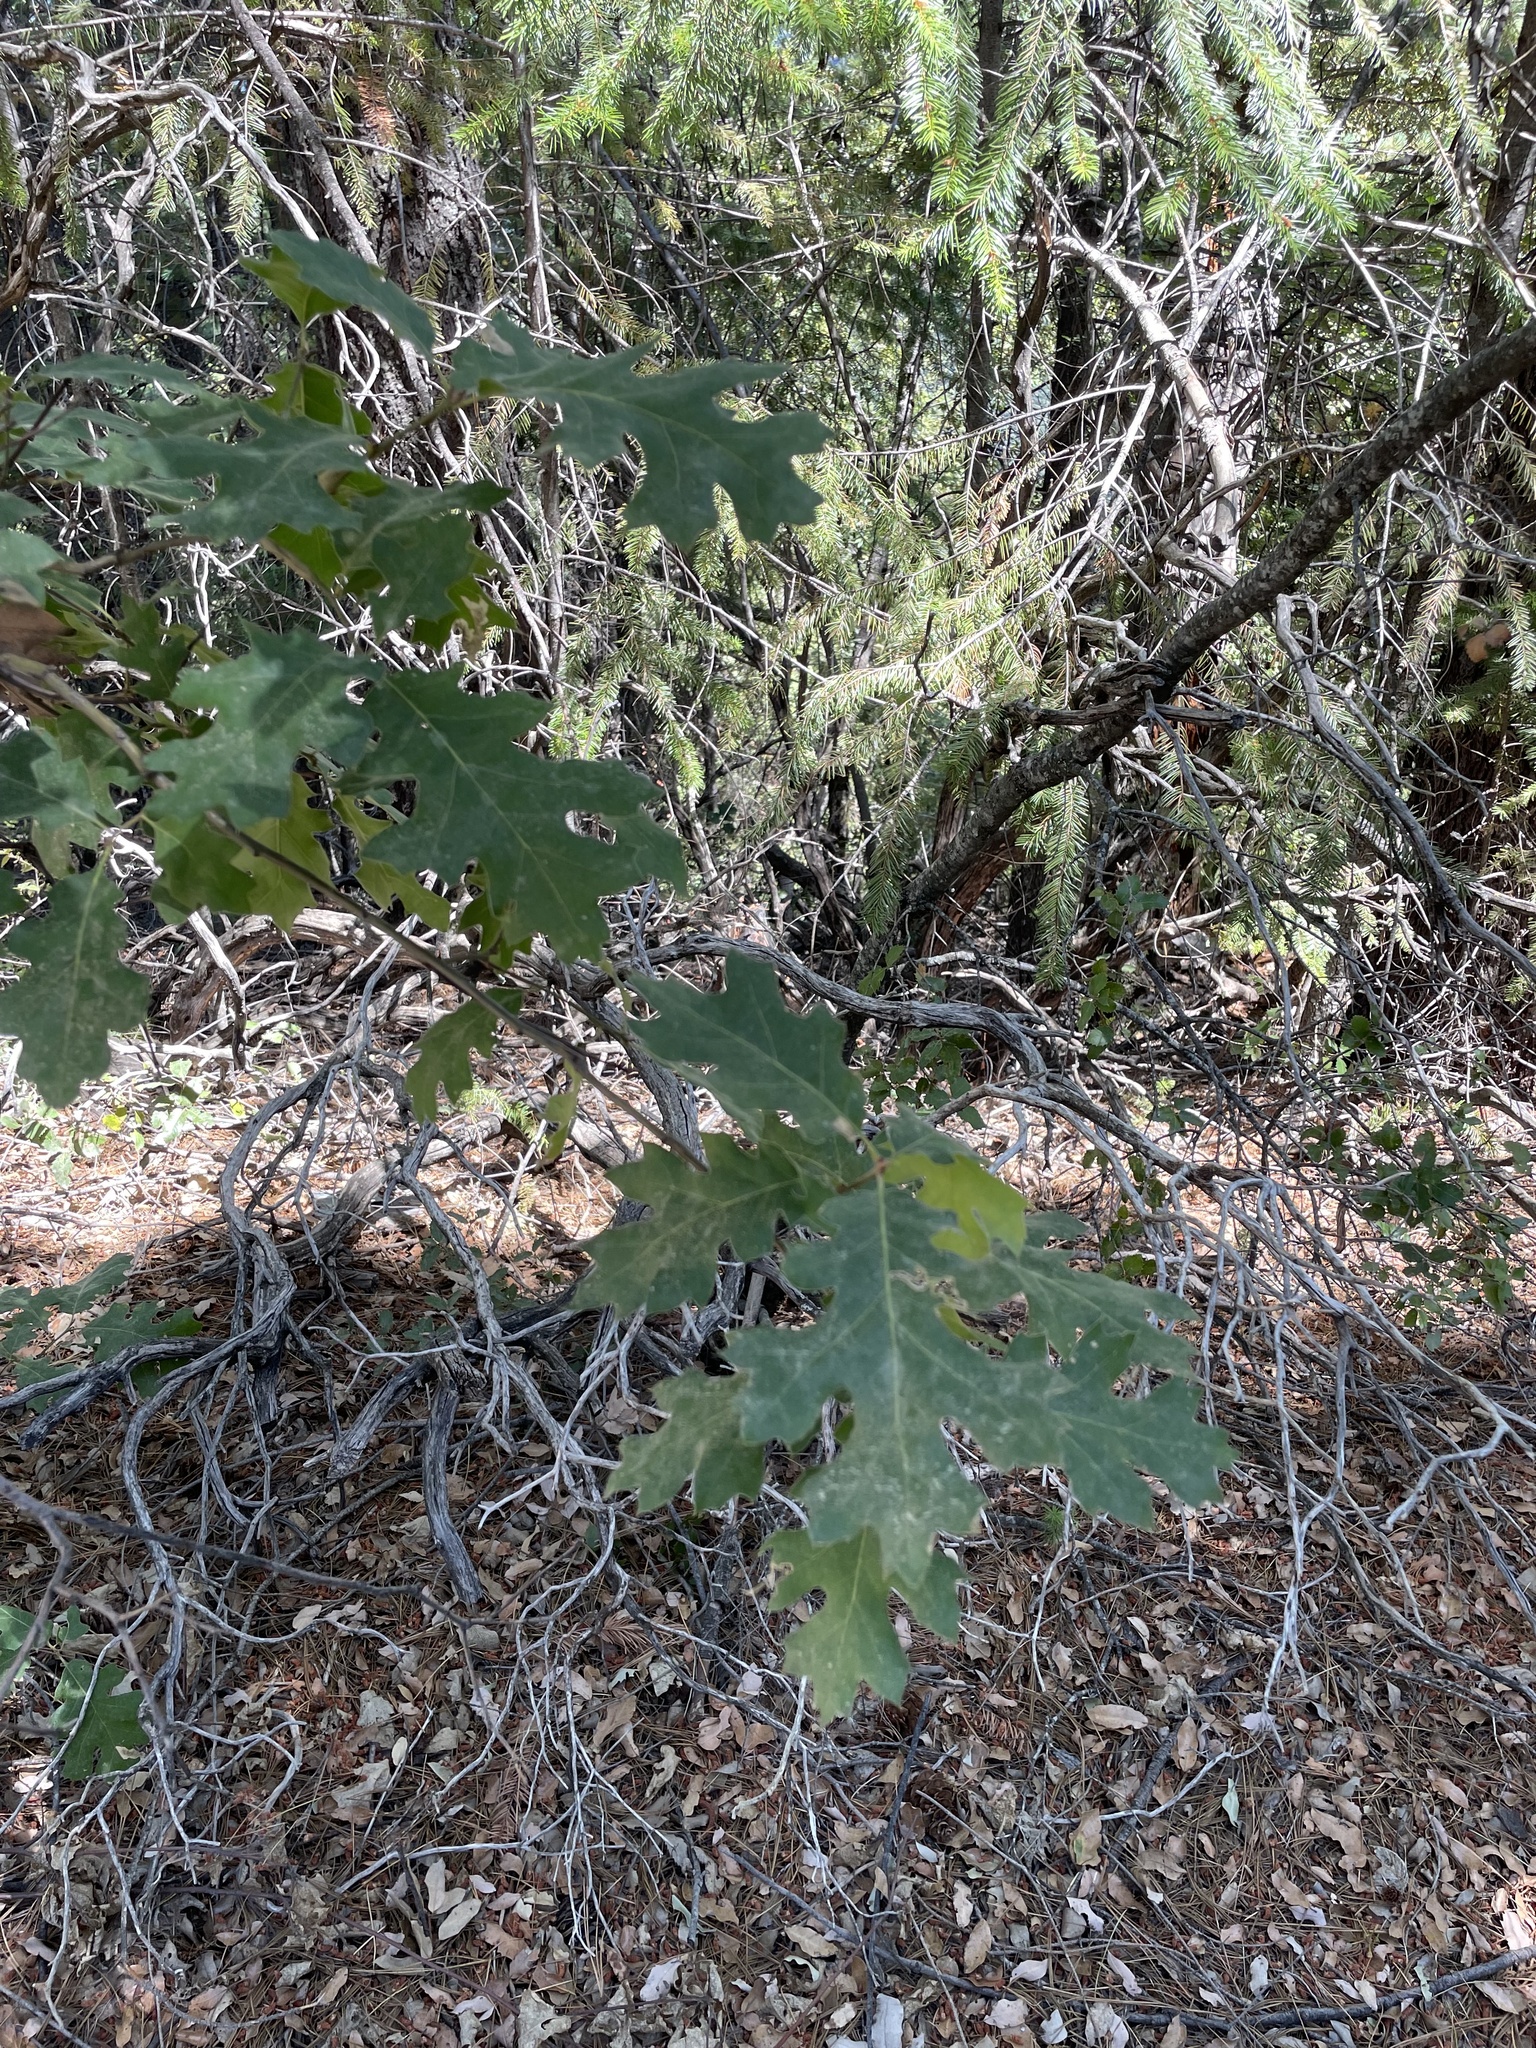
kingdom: Plantae
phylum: Tracheophyta
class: Magnoliopsida
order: Fagales
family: Fagaceae
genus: Quercus
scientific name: Quercus kelloggii
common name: California black oak
